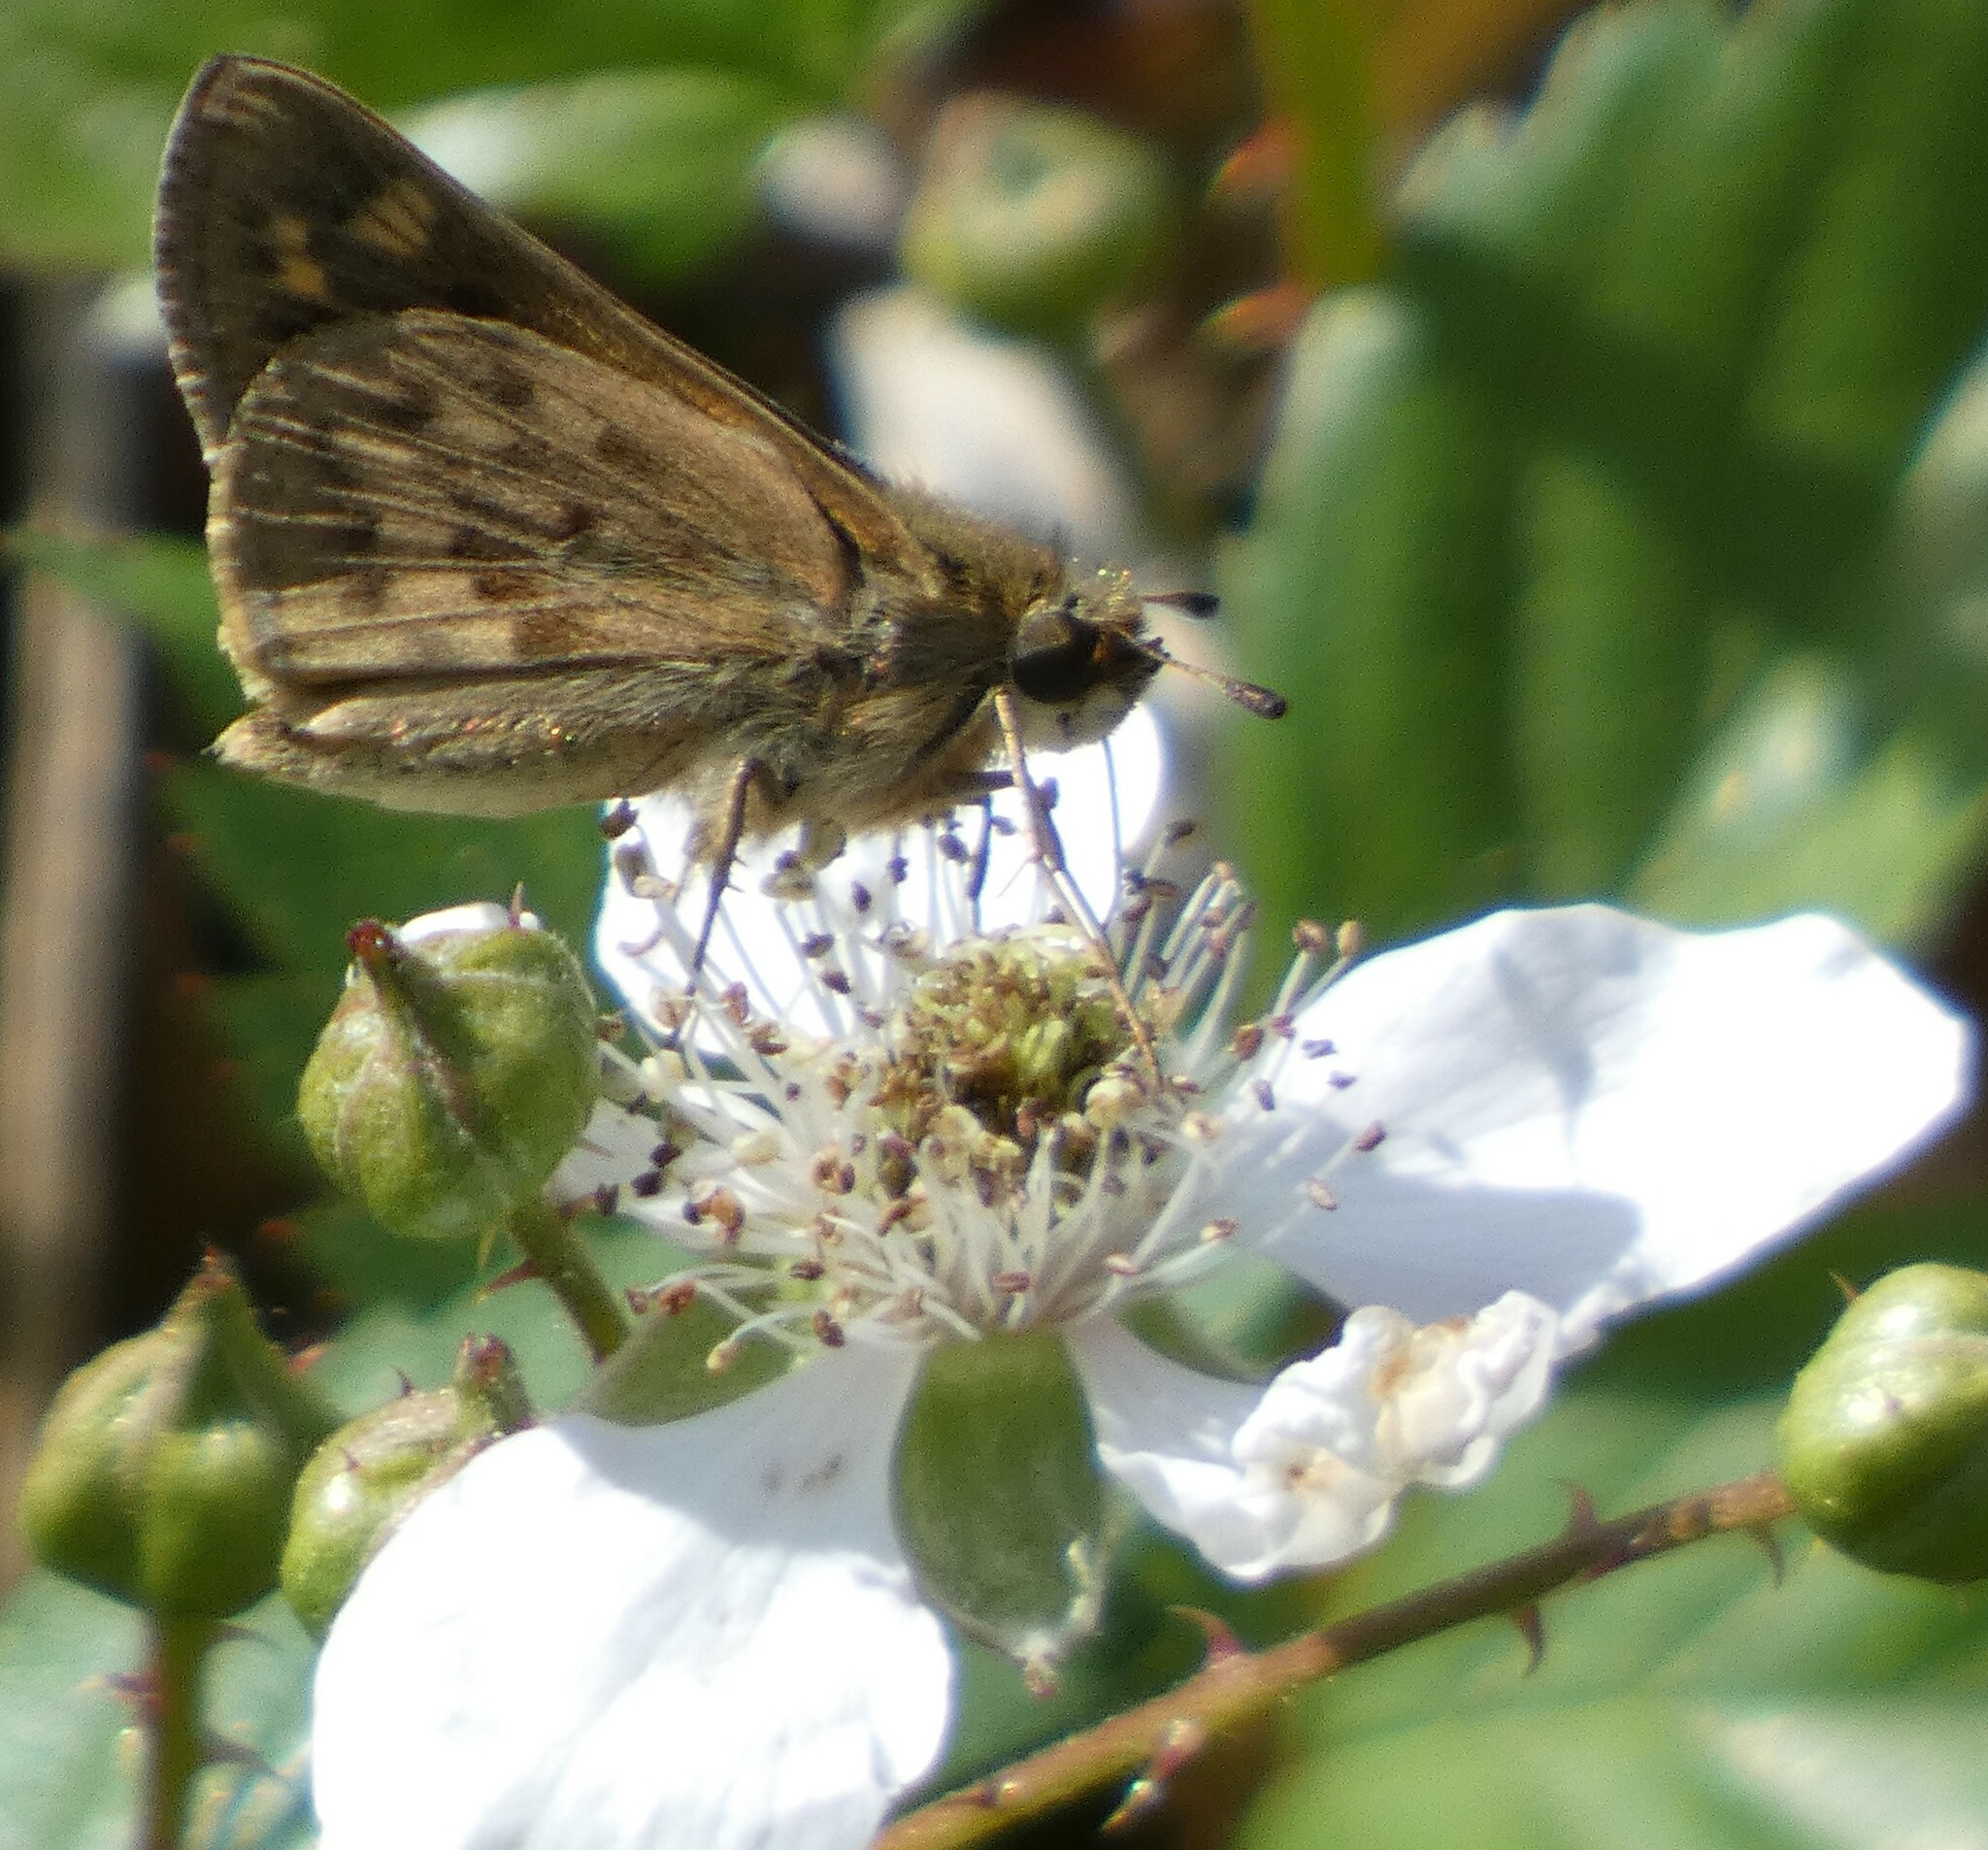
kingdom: Animalia
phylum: Arthropoda
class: Insecta
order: Lepidoptera
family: Hesperiidae
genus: Hylephila
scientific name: Hylephila phyleus
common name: Fiery skipper
